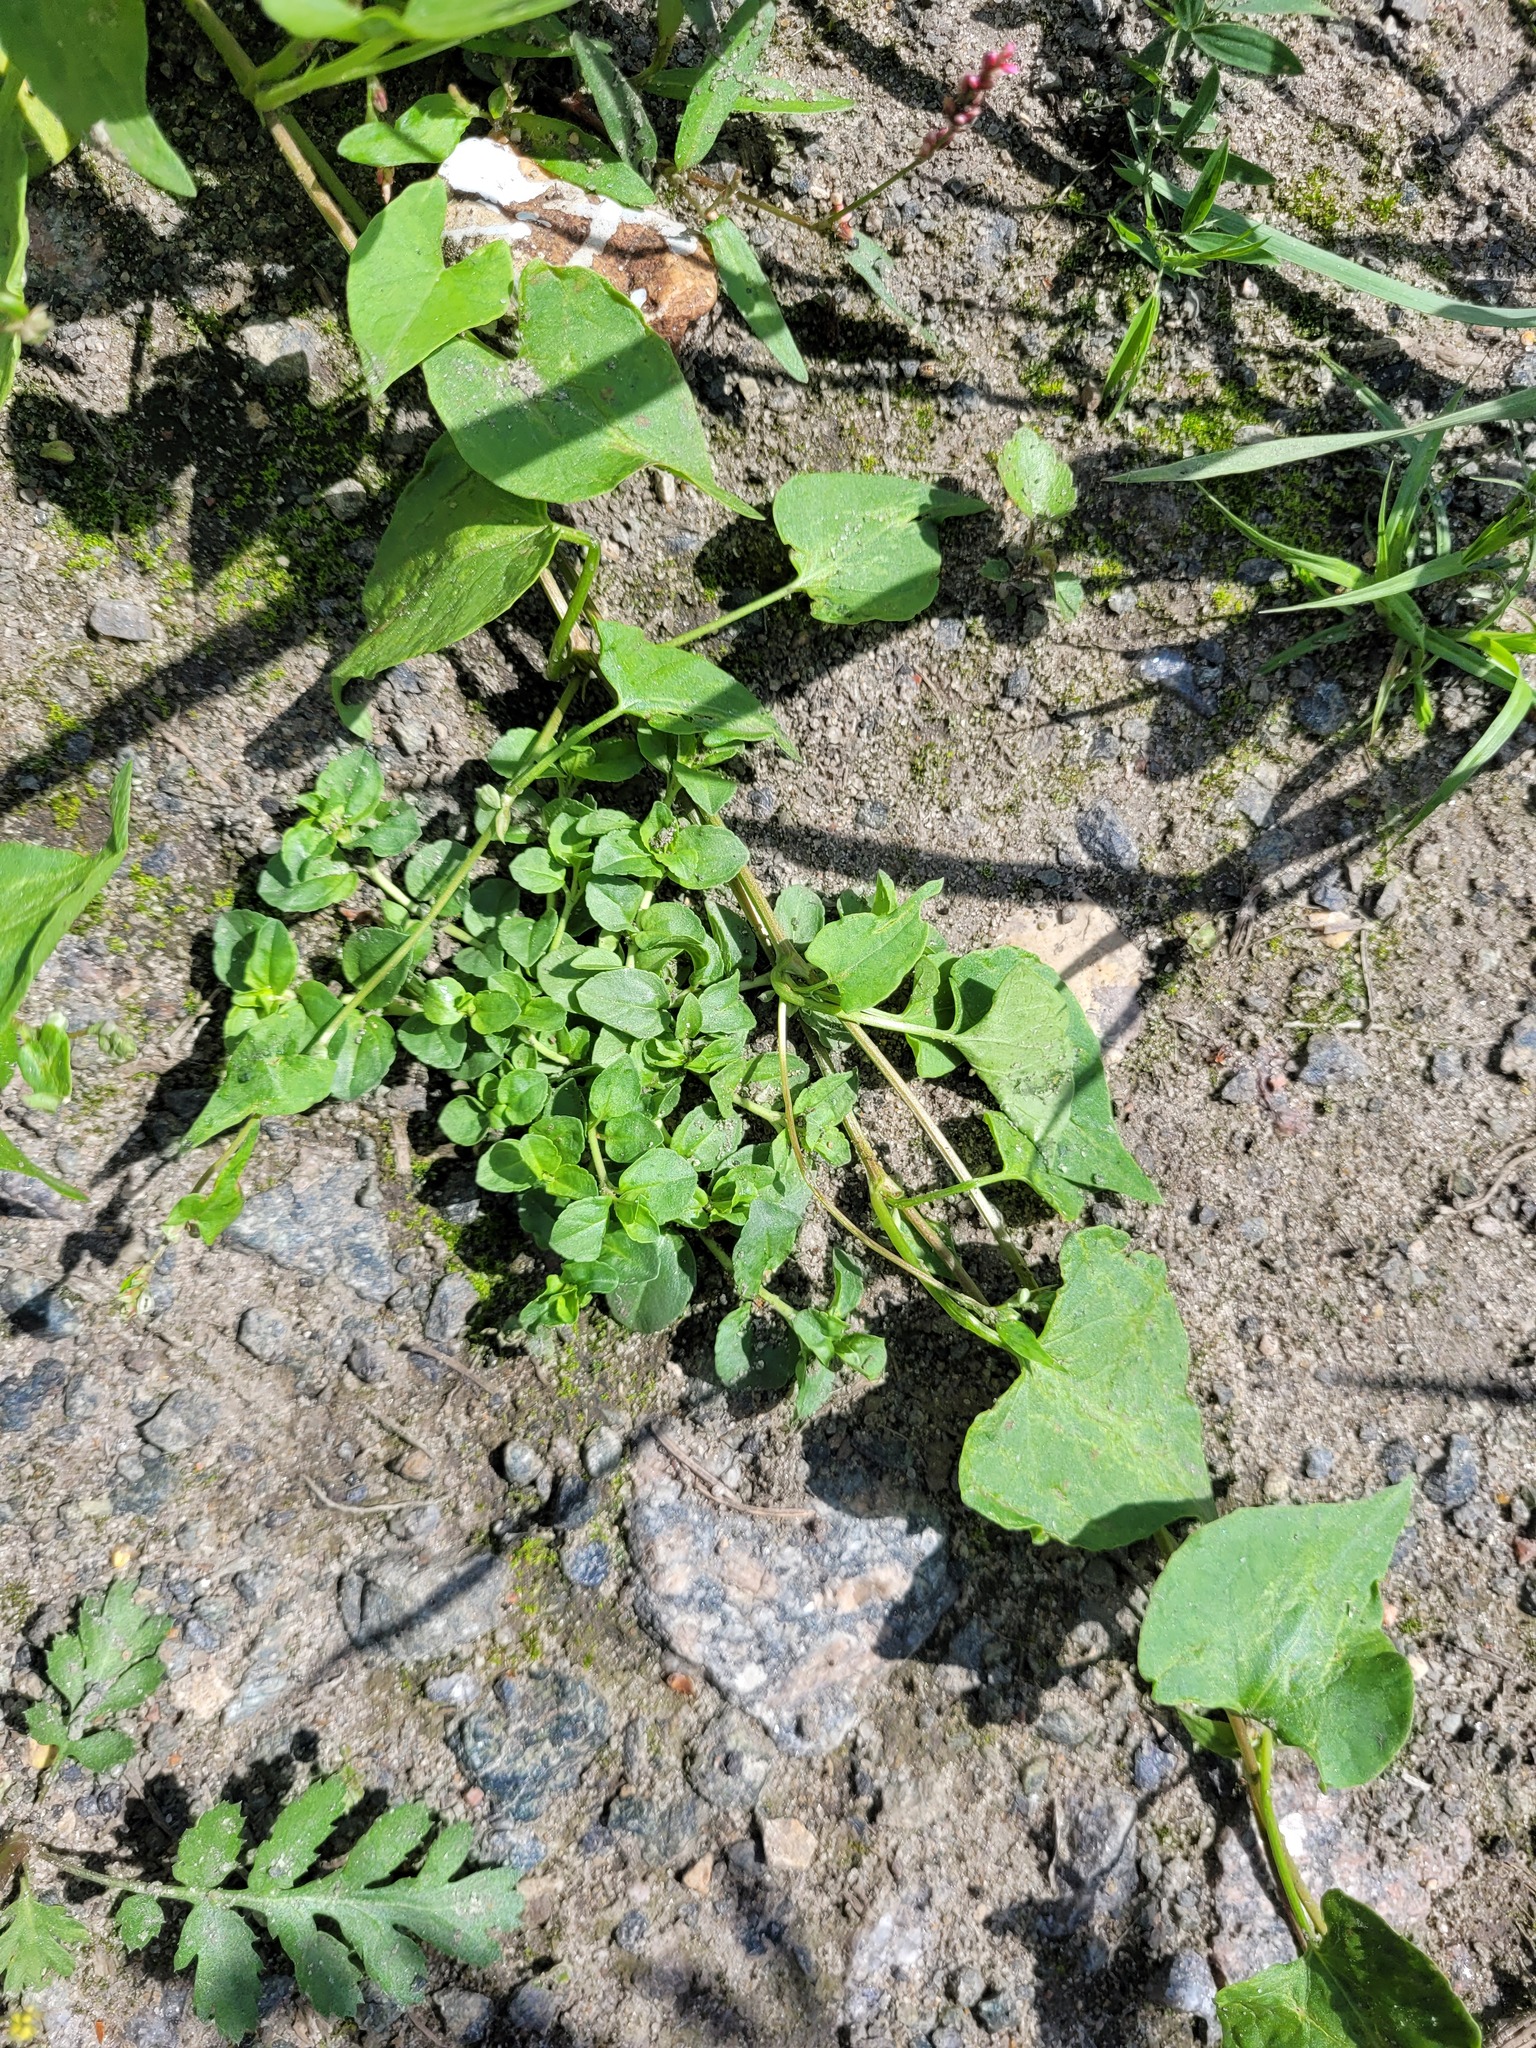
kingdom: Plantae
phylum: Tracheophyta
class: Magnoliopsida
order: Lamiales
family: Plantaginaceae
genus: Veronica
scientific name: Veronica serpyllifolia
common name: Thyme-leaved speedwell
